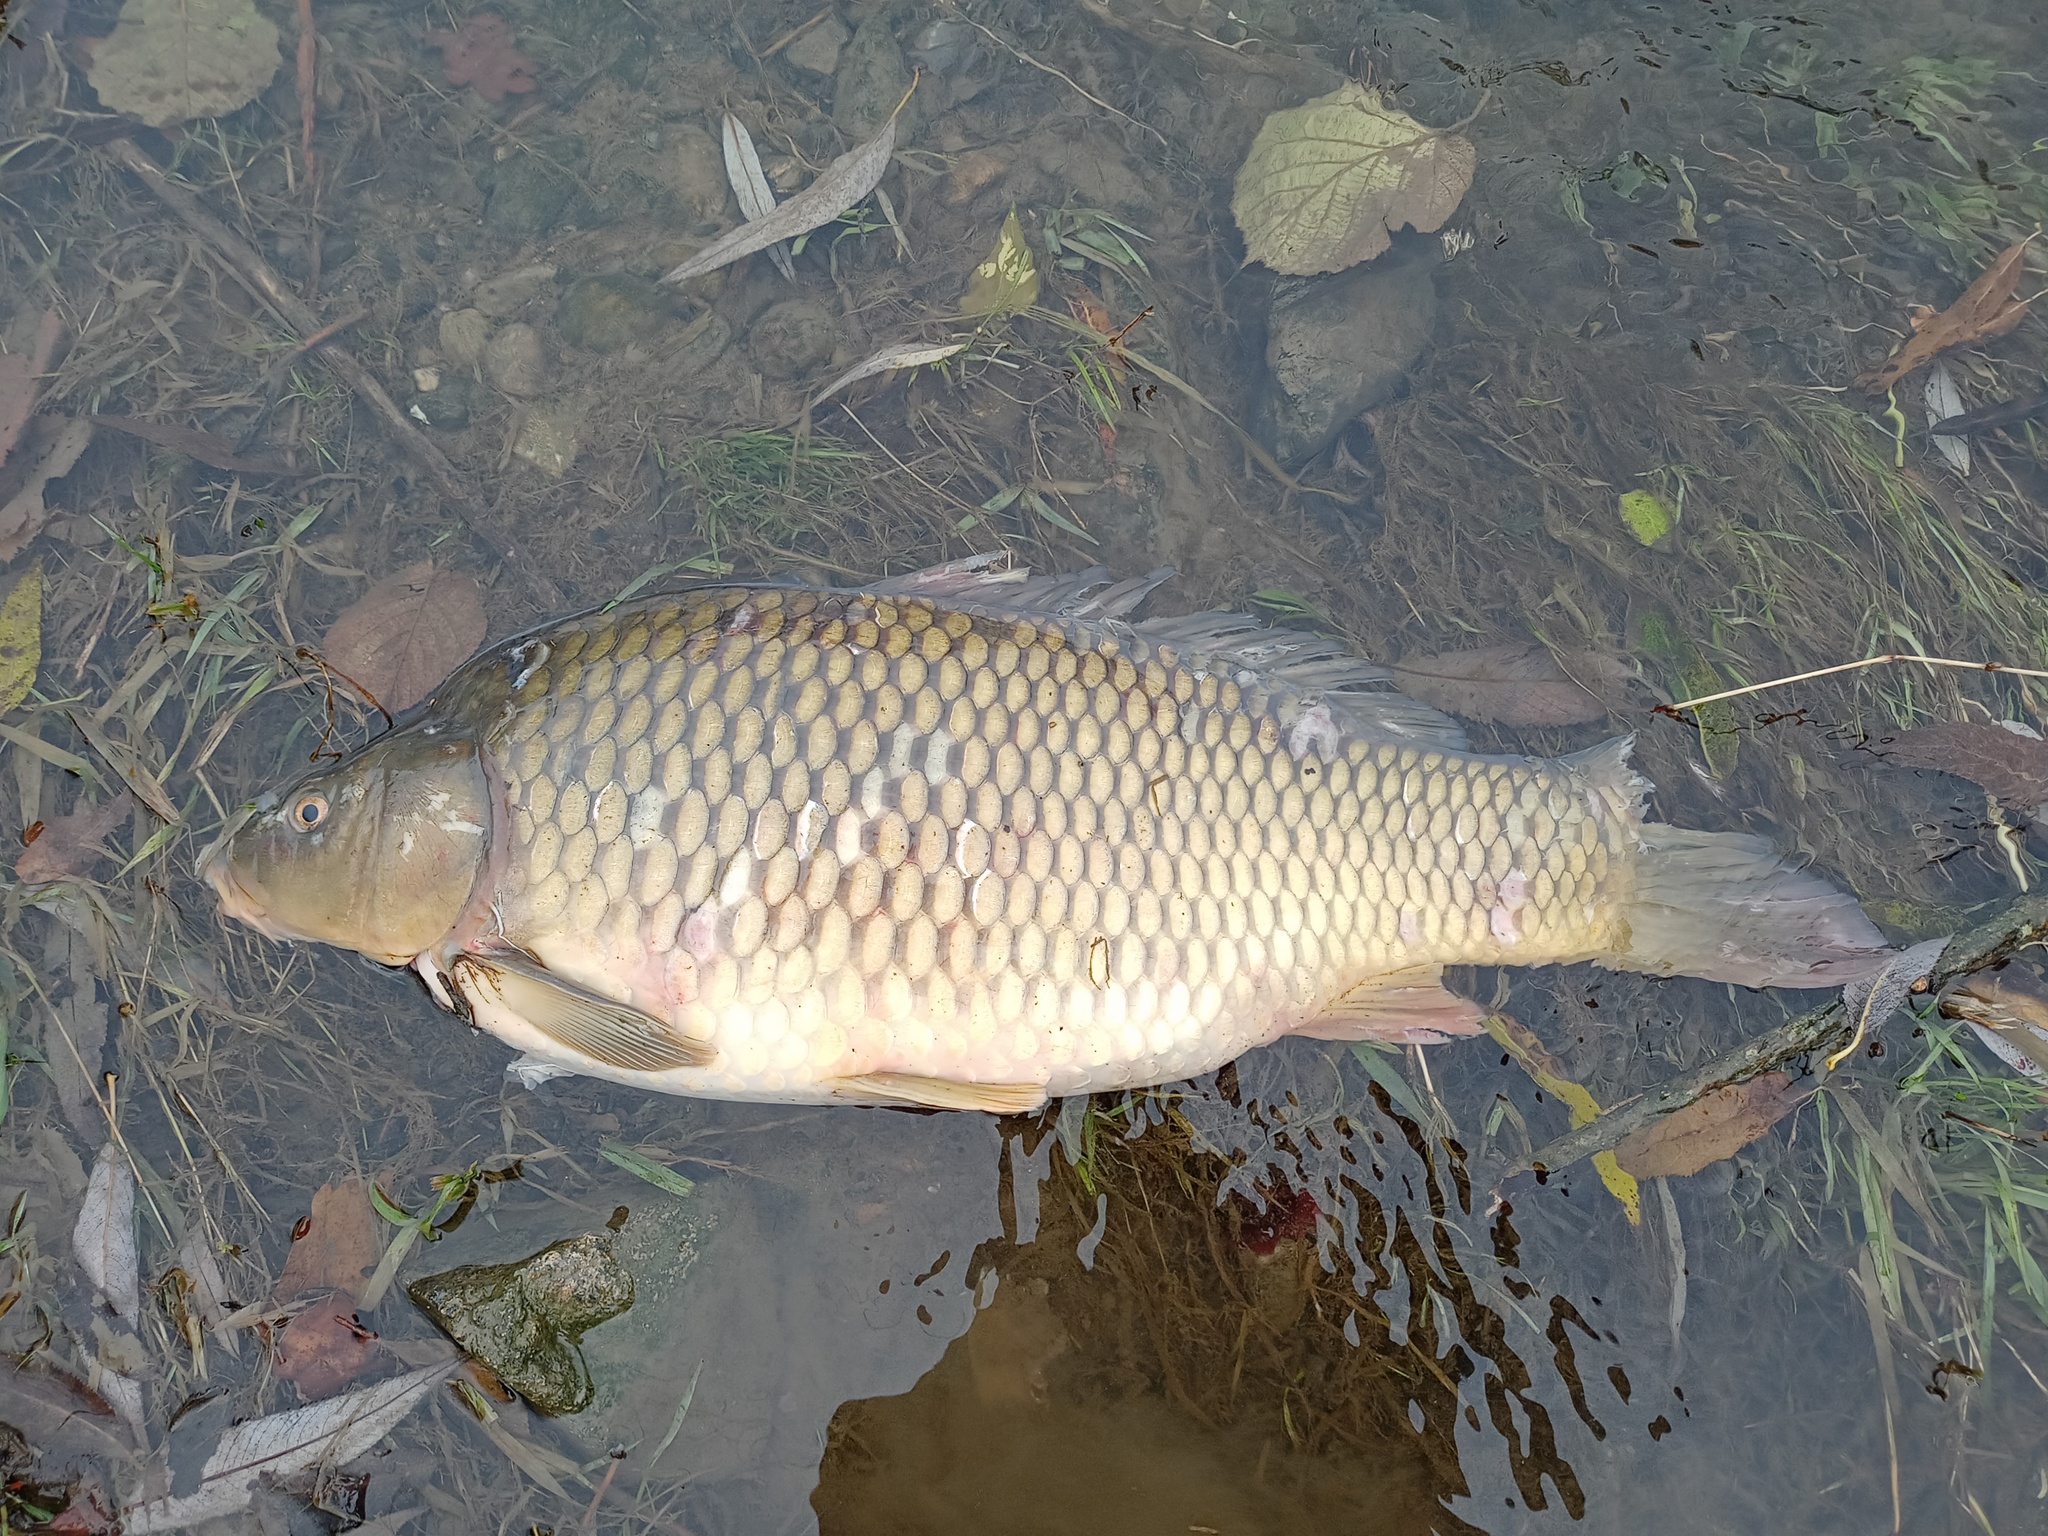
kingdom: Animalia
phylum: Chordata
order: Cypriniformes
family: Cyprinidae
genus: Cyprinus
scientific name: Cyprinus carpio
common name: Common carp
